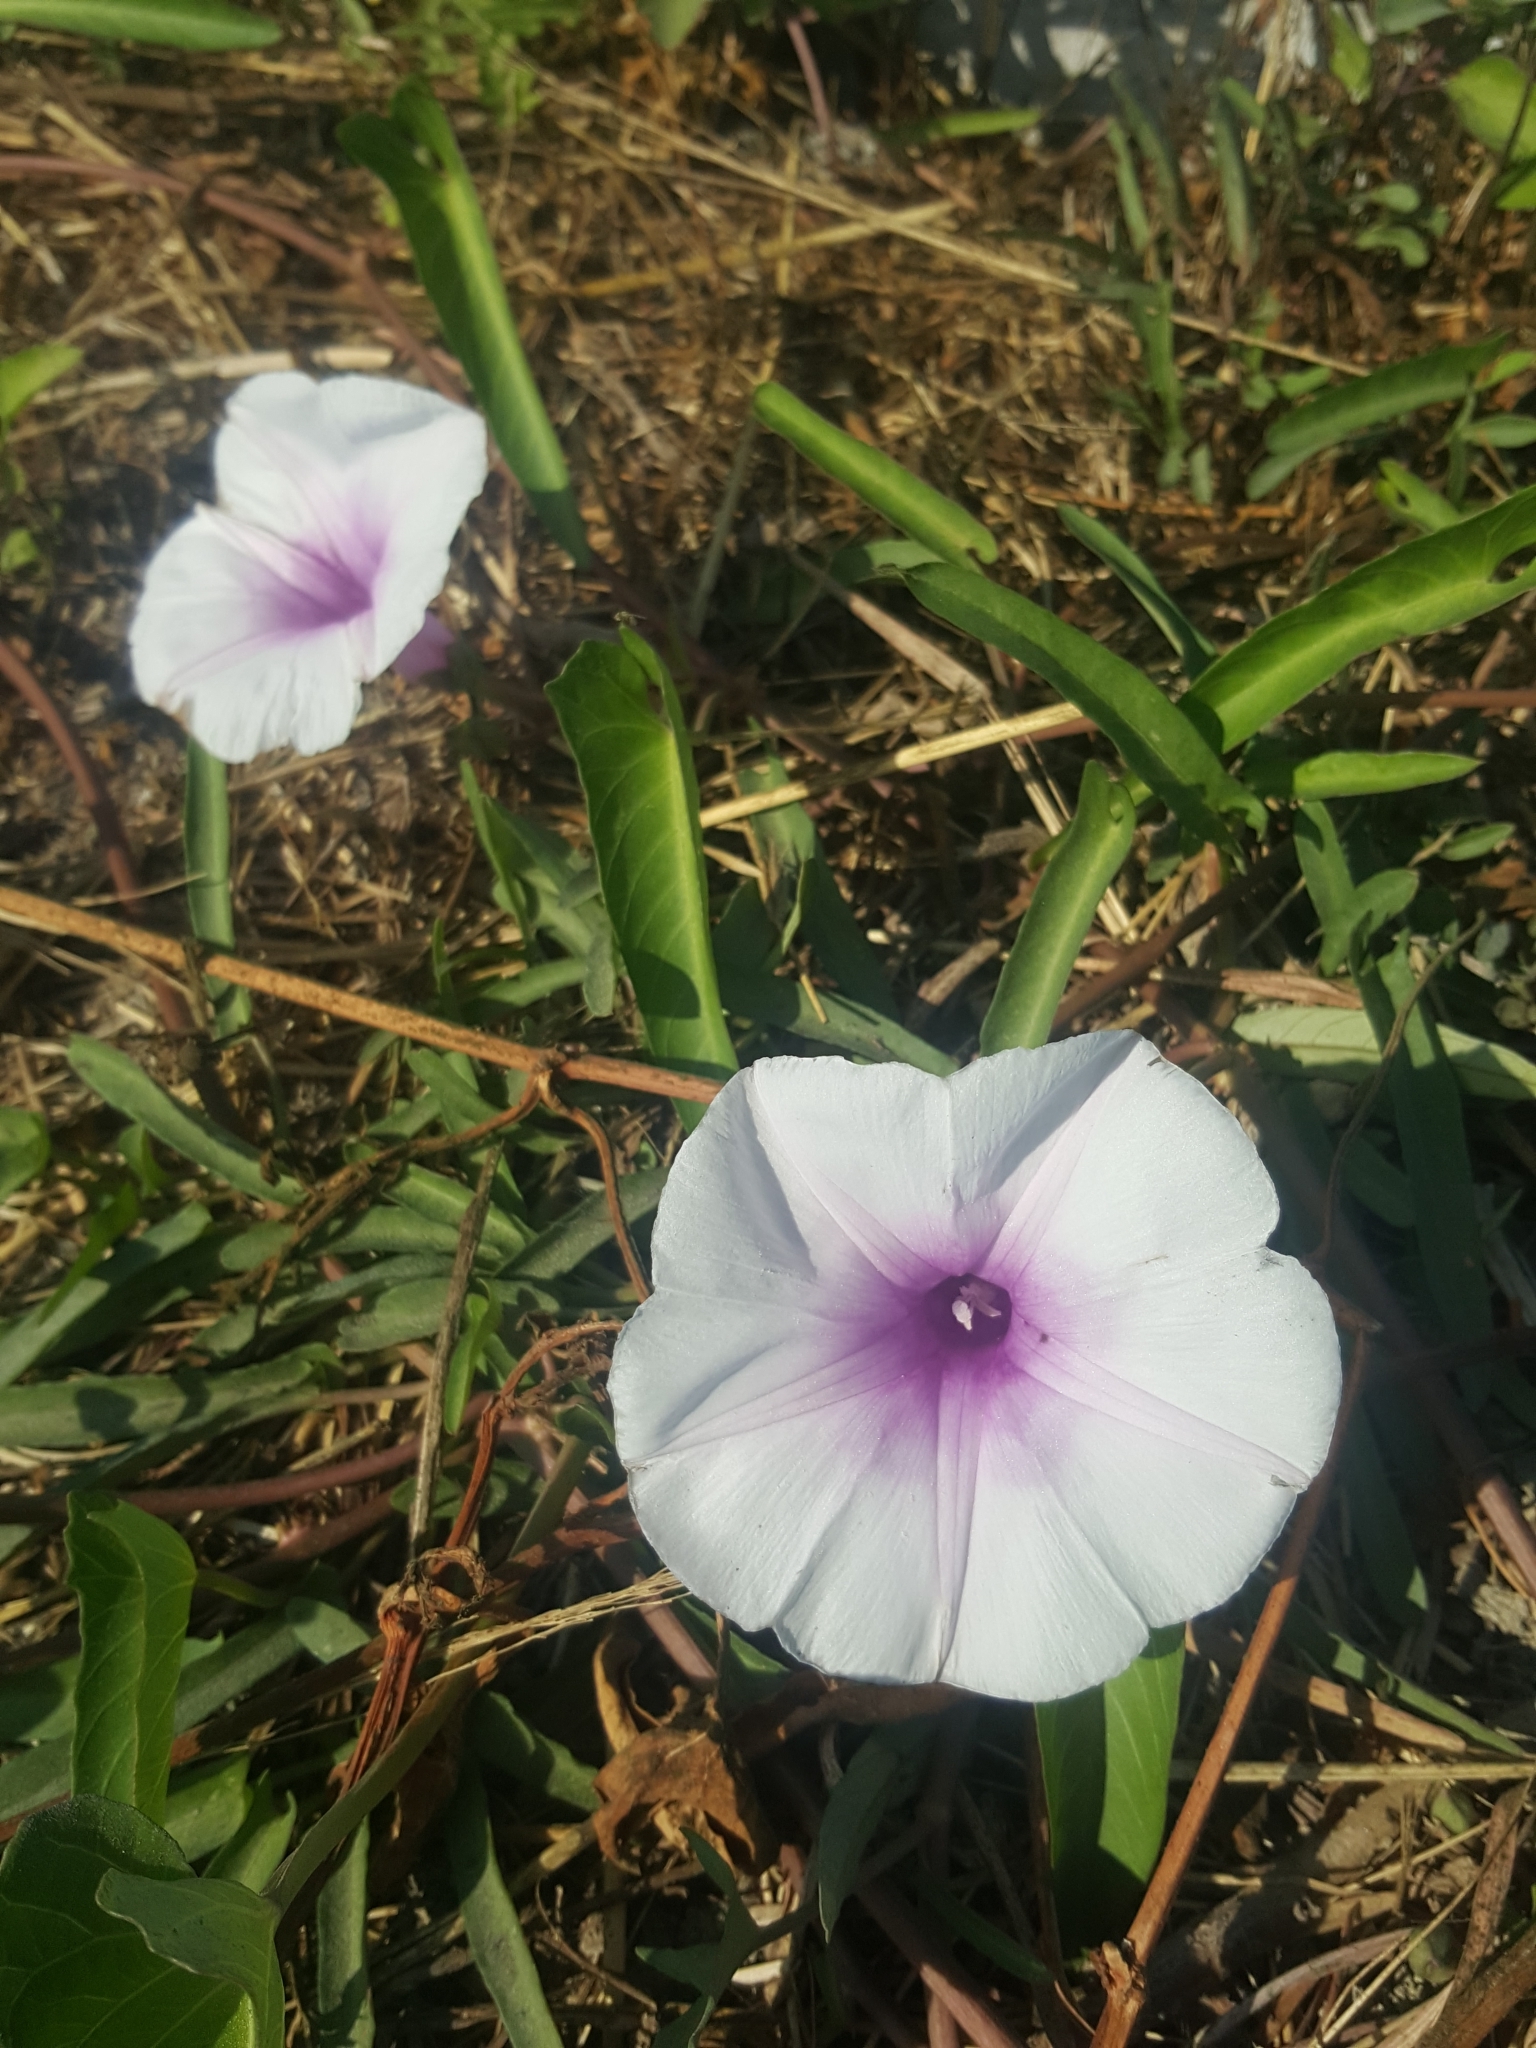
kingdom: Plantae
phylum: Tracheophyta
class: Magnoliopsida
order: Solanales
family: Convolvulaceae
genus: Ipomoea
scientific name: Ipomoea aquatica
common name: Swamp morning-glory
